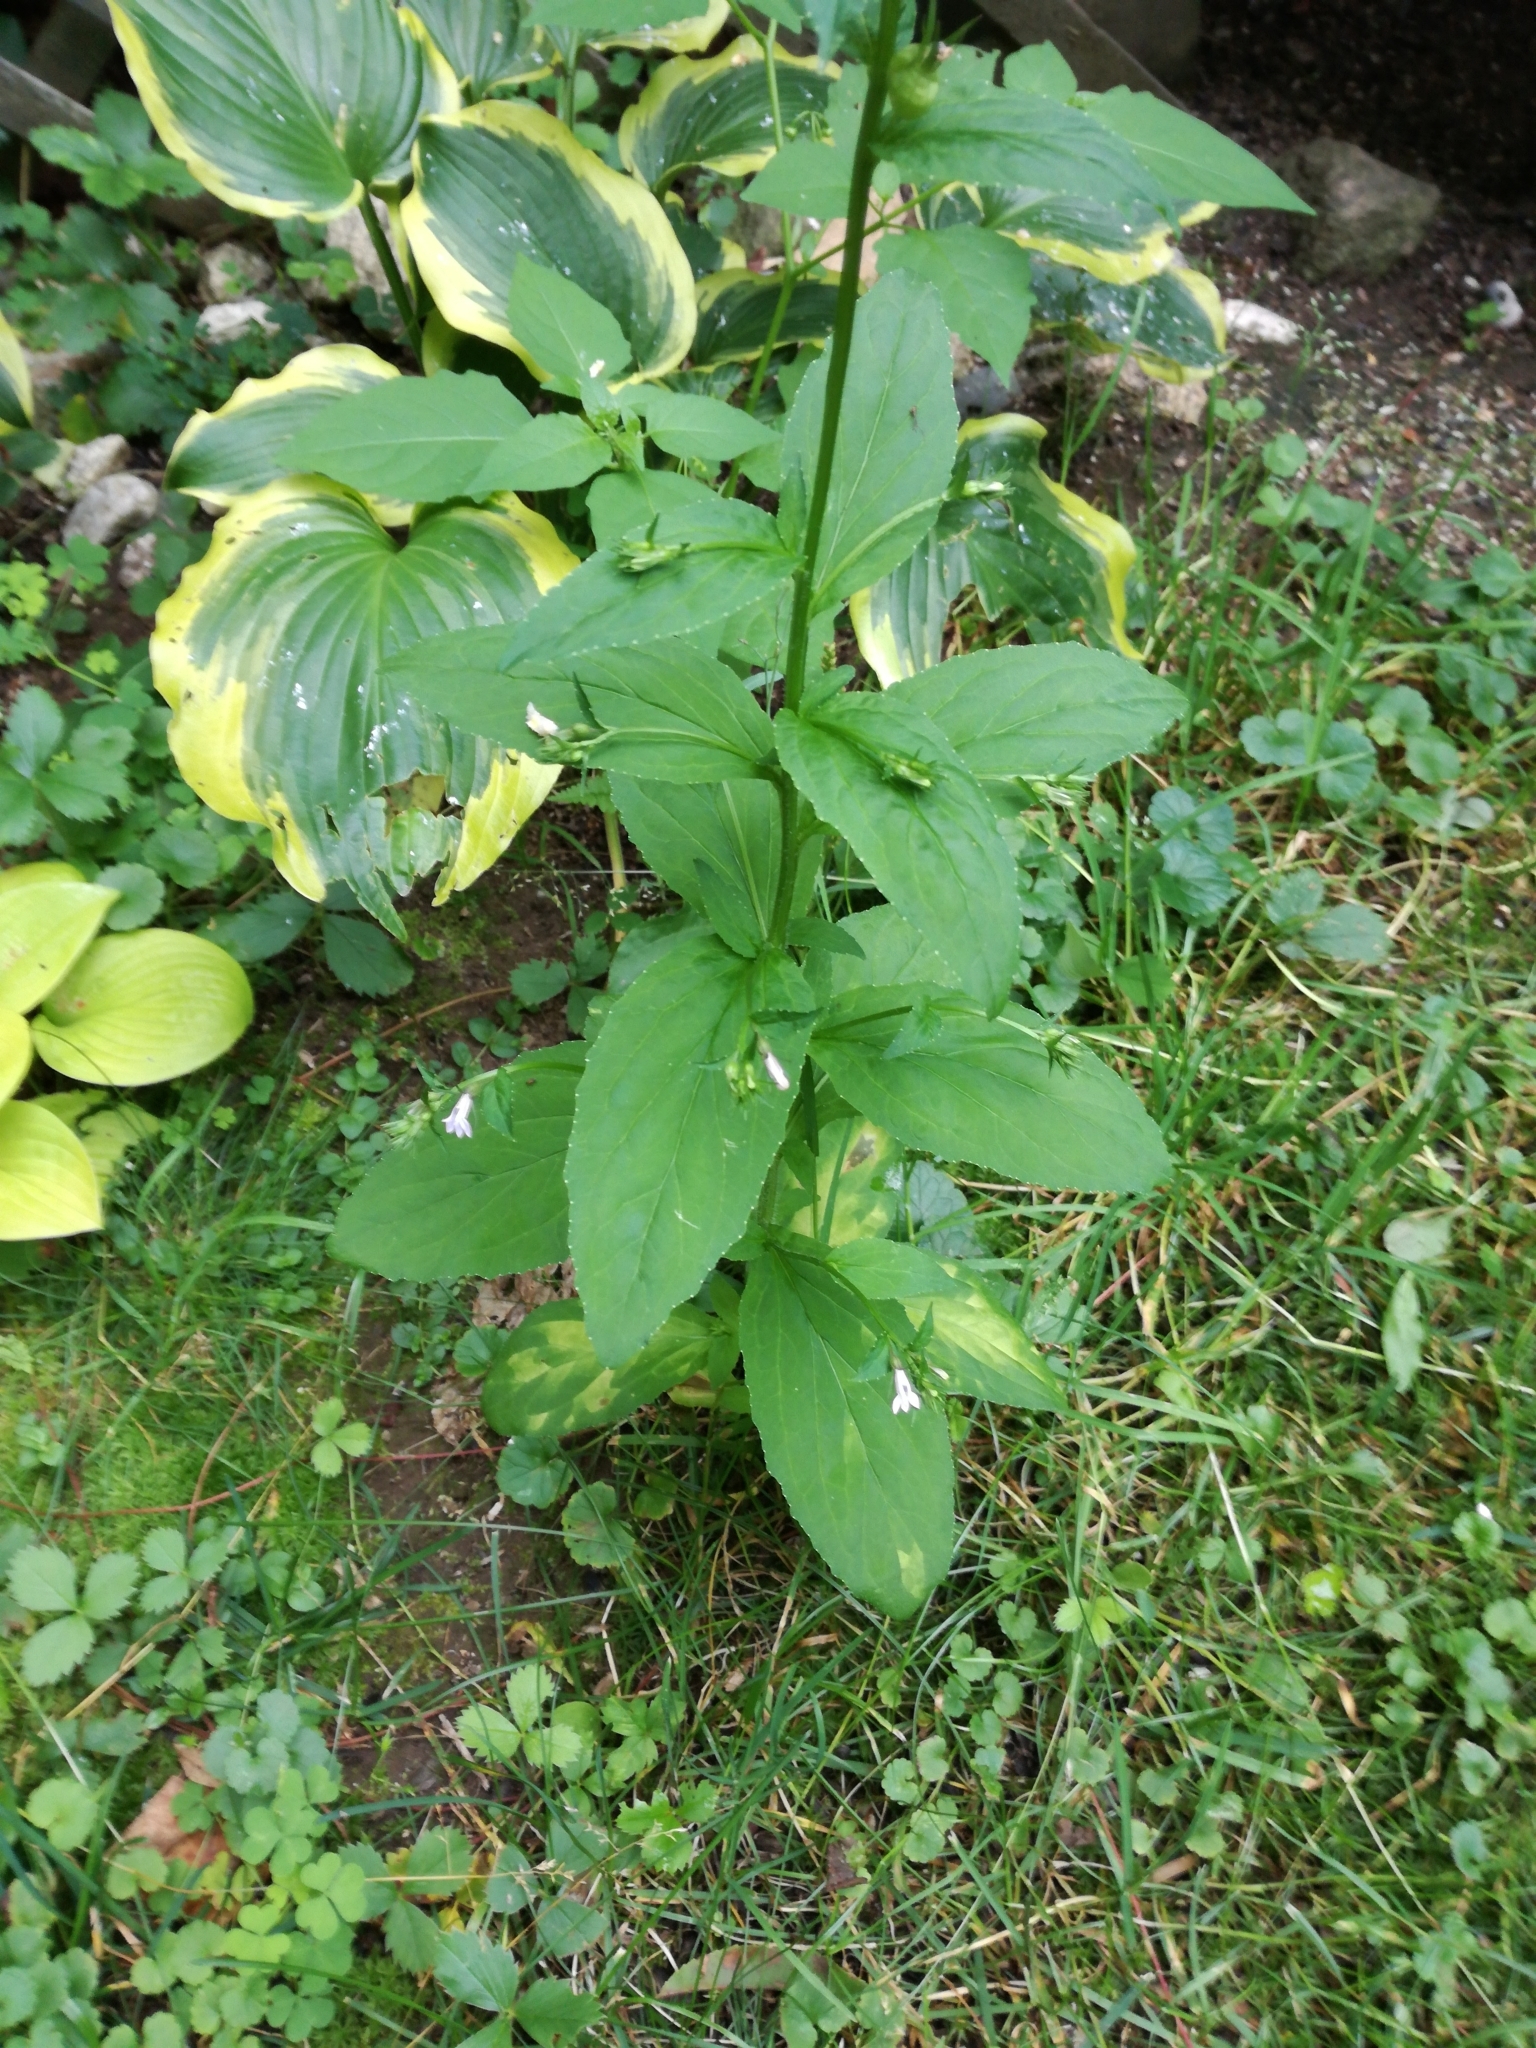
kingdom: Plantae
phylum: Tracheophyta
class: Magnoliopsida
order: Asterales
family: Campanulaceae
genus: Lobelia
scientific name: Lobelia inflata
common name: Indian tobacco
